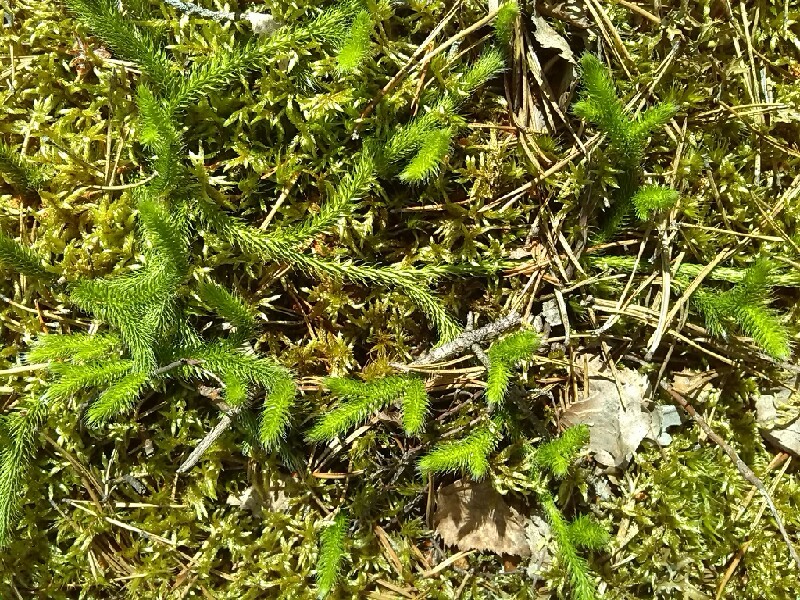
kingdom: Plantae
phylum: Tracheophyta
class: Lycopodiopsida
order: Lycopodiales
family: Lycopodiaceae
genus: Lycopodium
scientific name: Lycopodium clavatum
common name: Stag's-horn clubmoss
